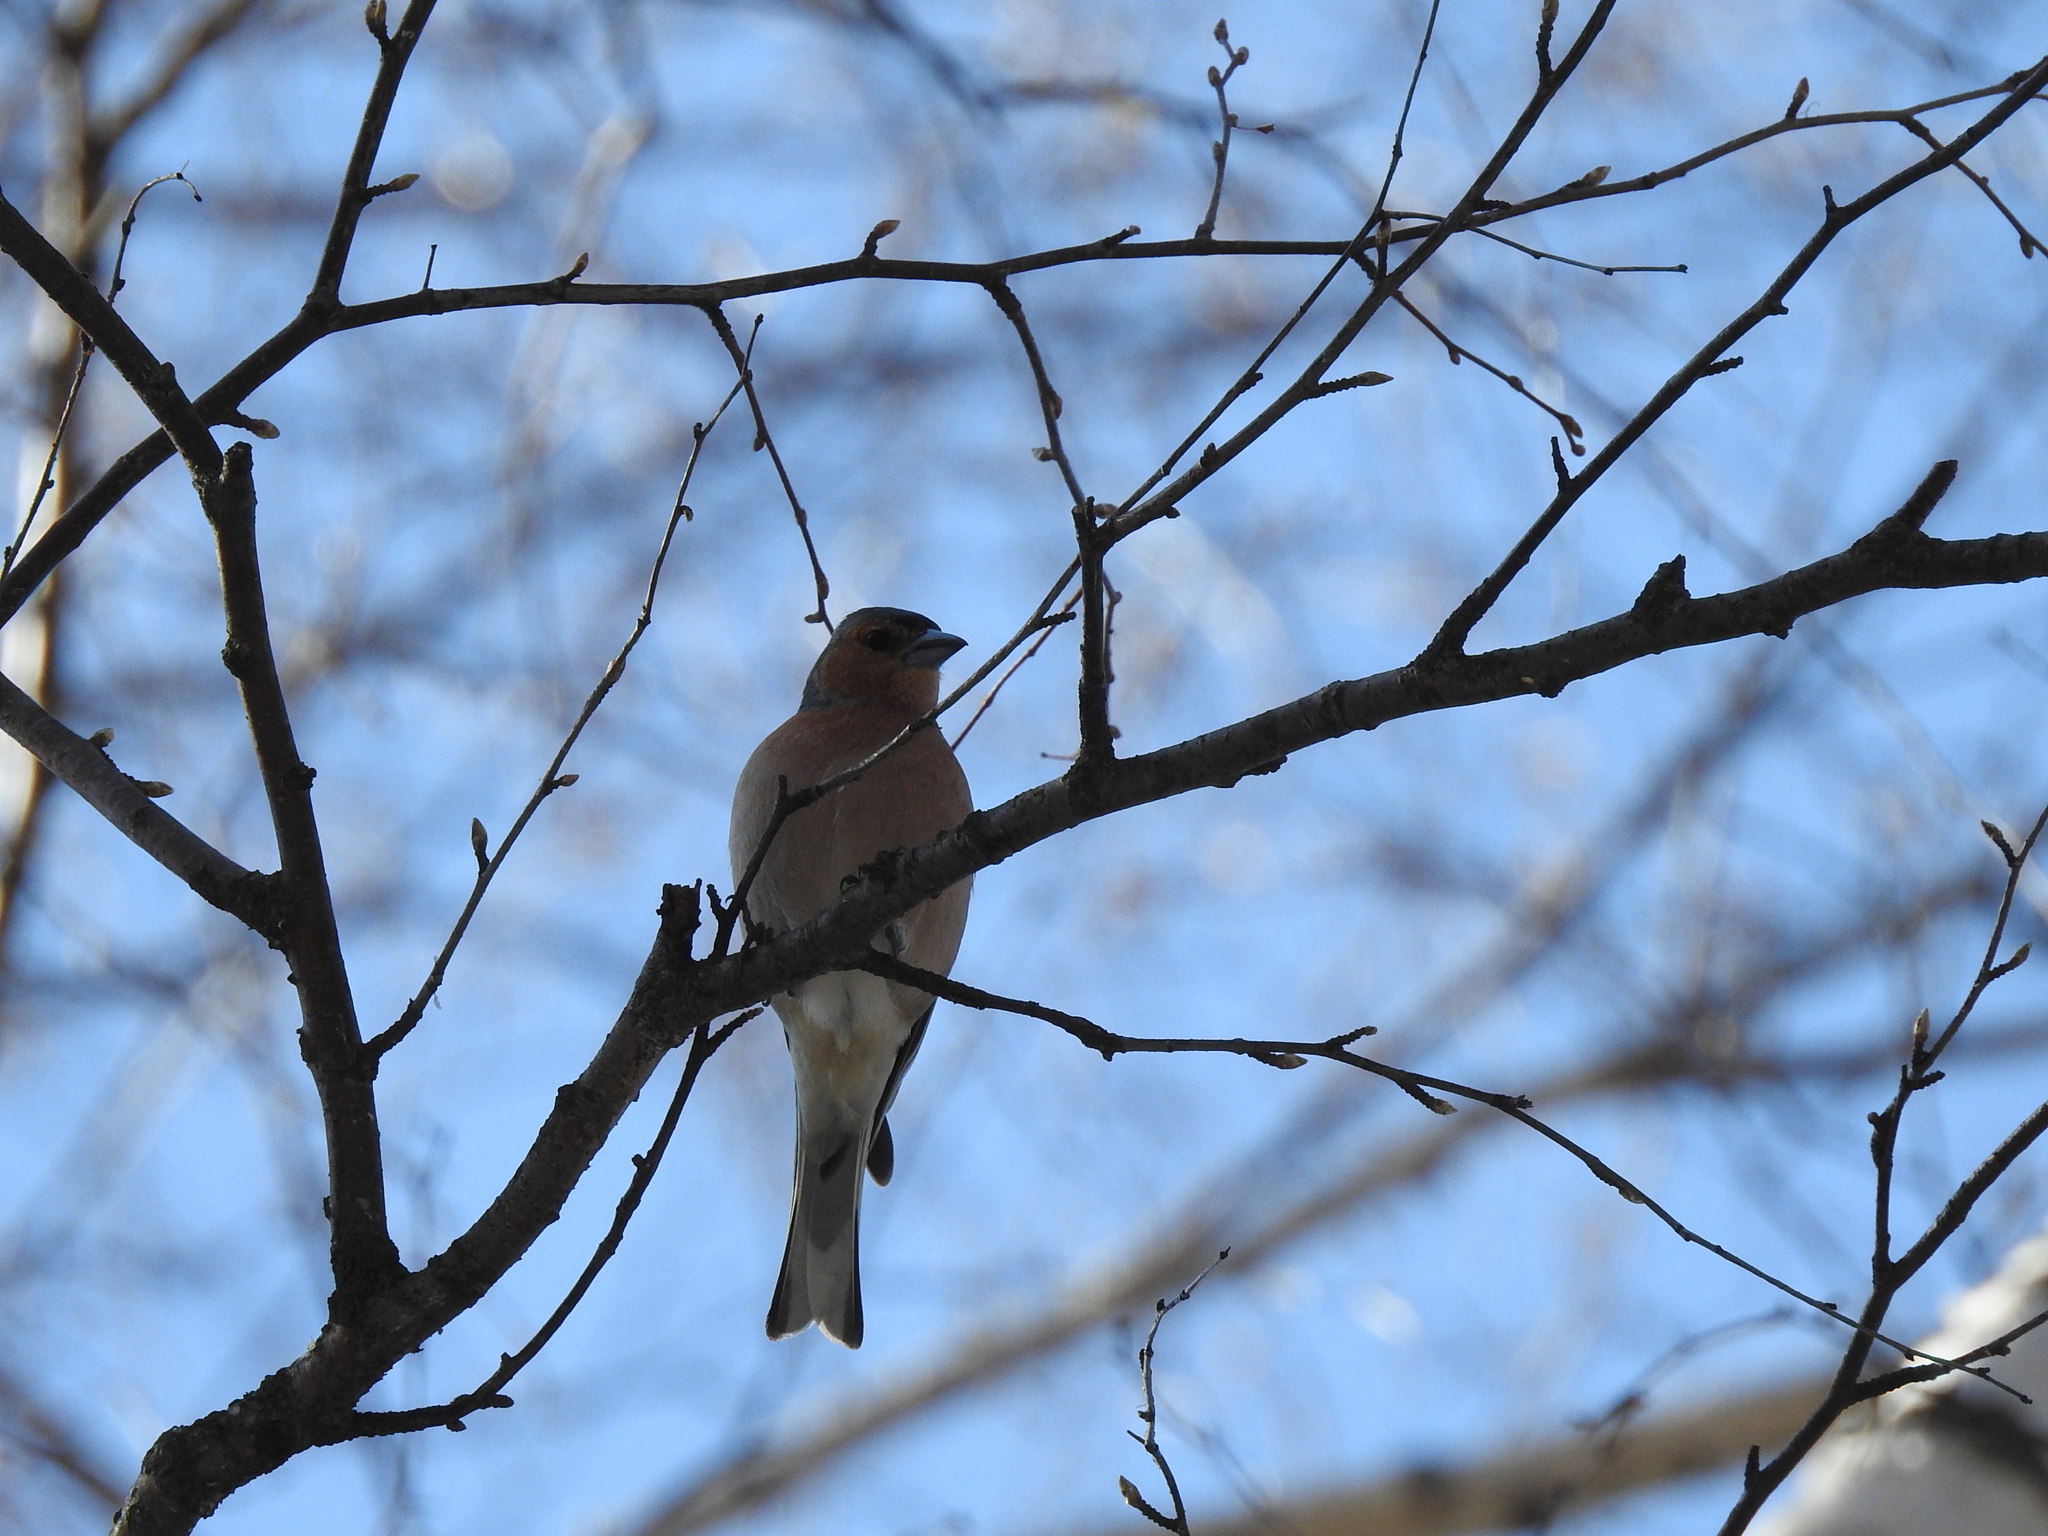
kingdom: Animalia
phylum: Chordata
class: Aves
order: Passeriformes
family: Fringillidae
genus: Fringilla
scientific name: Fringilla coelebs
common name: Common chaffinch
